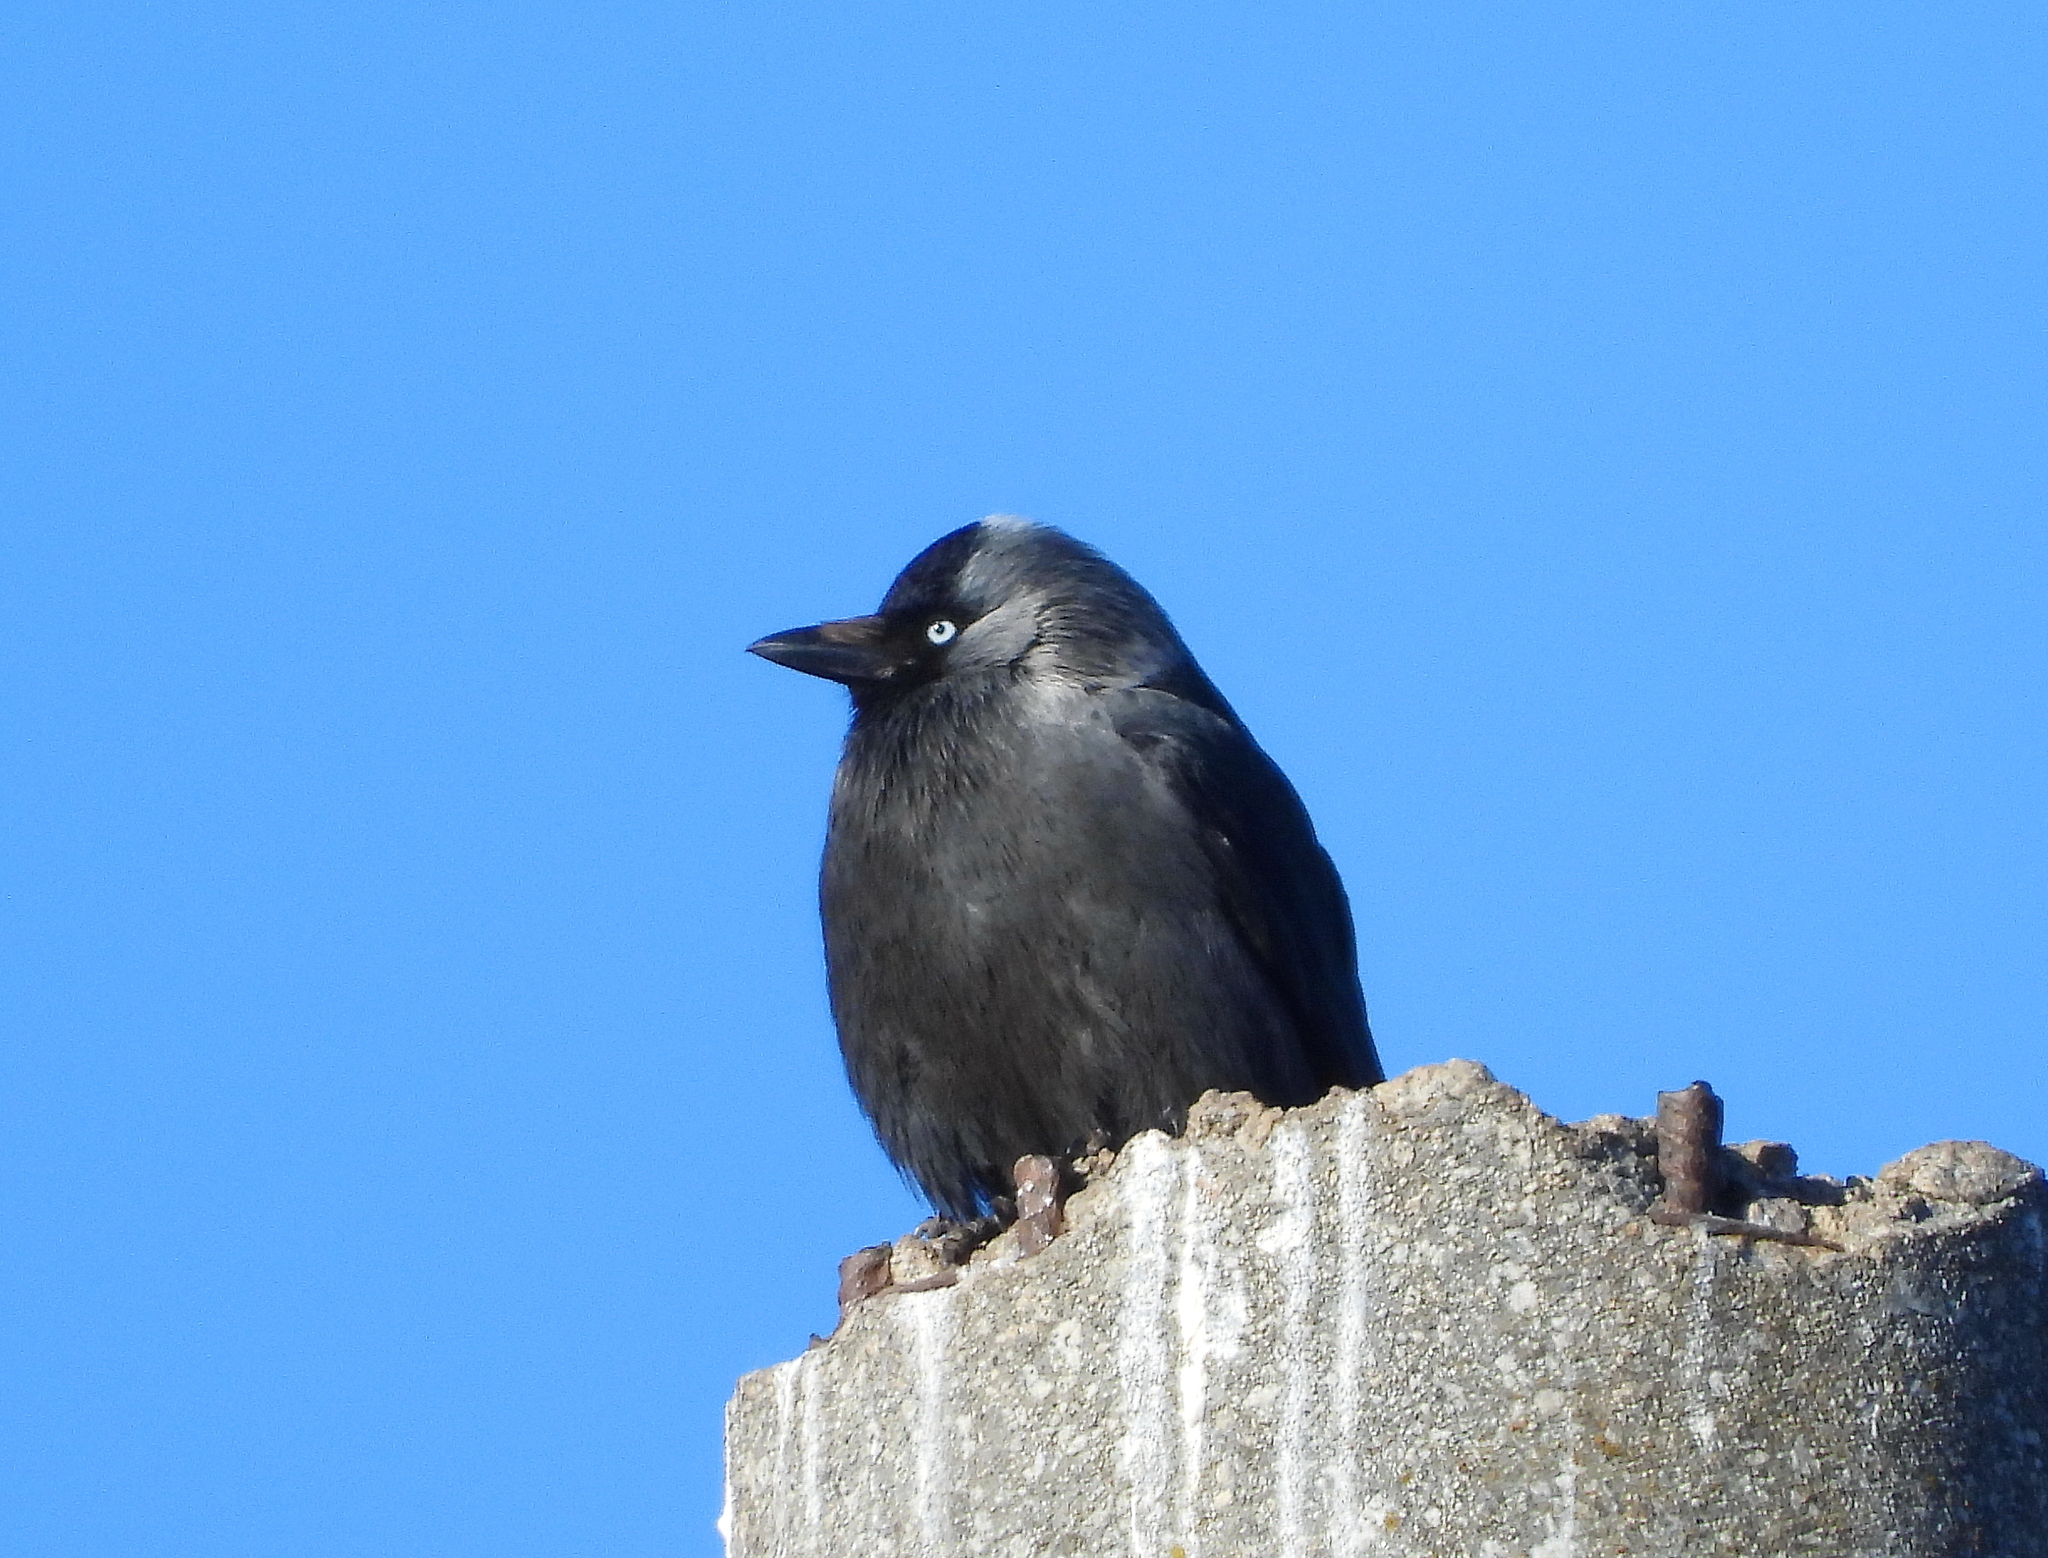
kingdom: Animalia
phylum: Chordata
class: Aves
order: Passeriformes
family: Corvidae
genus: Coloeus
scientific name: Coloeus monedula
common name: Western jackdaw
